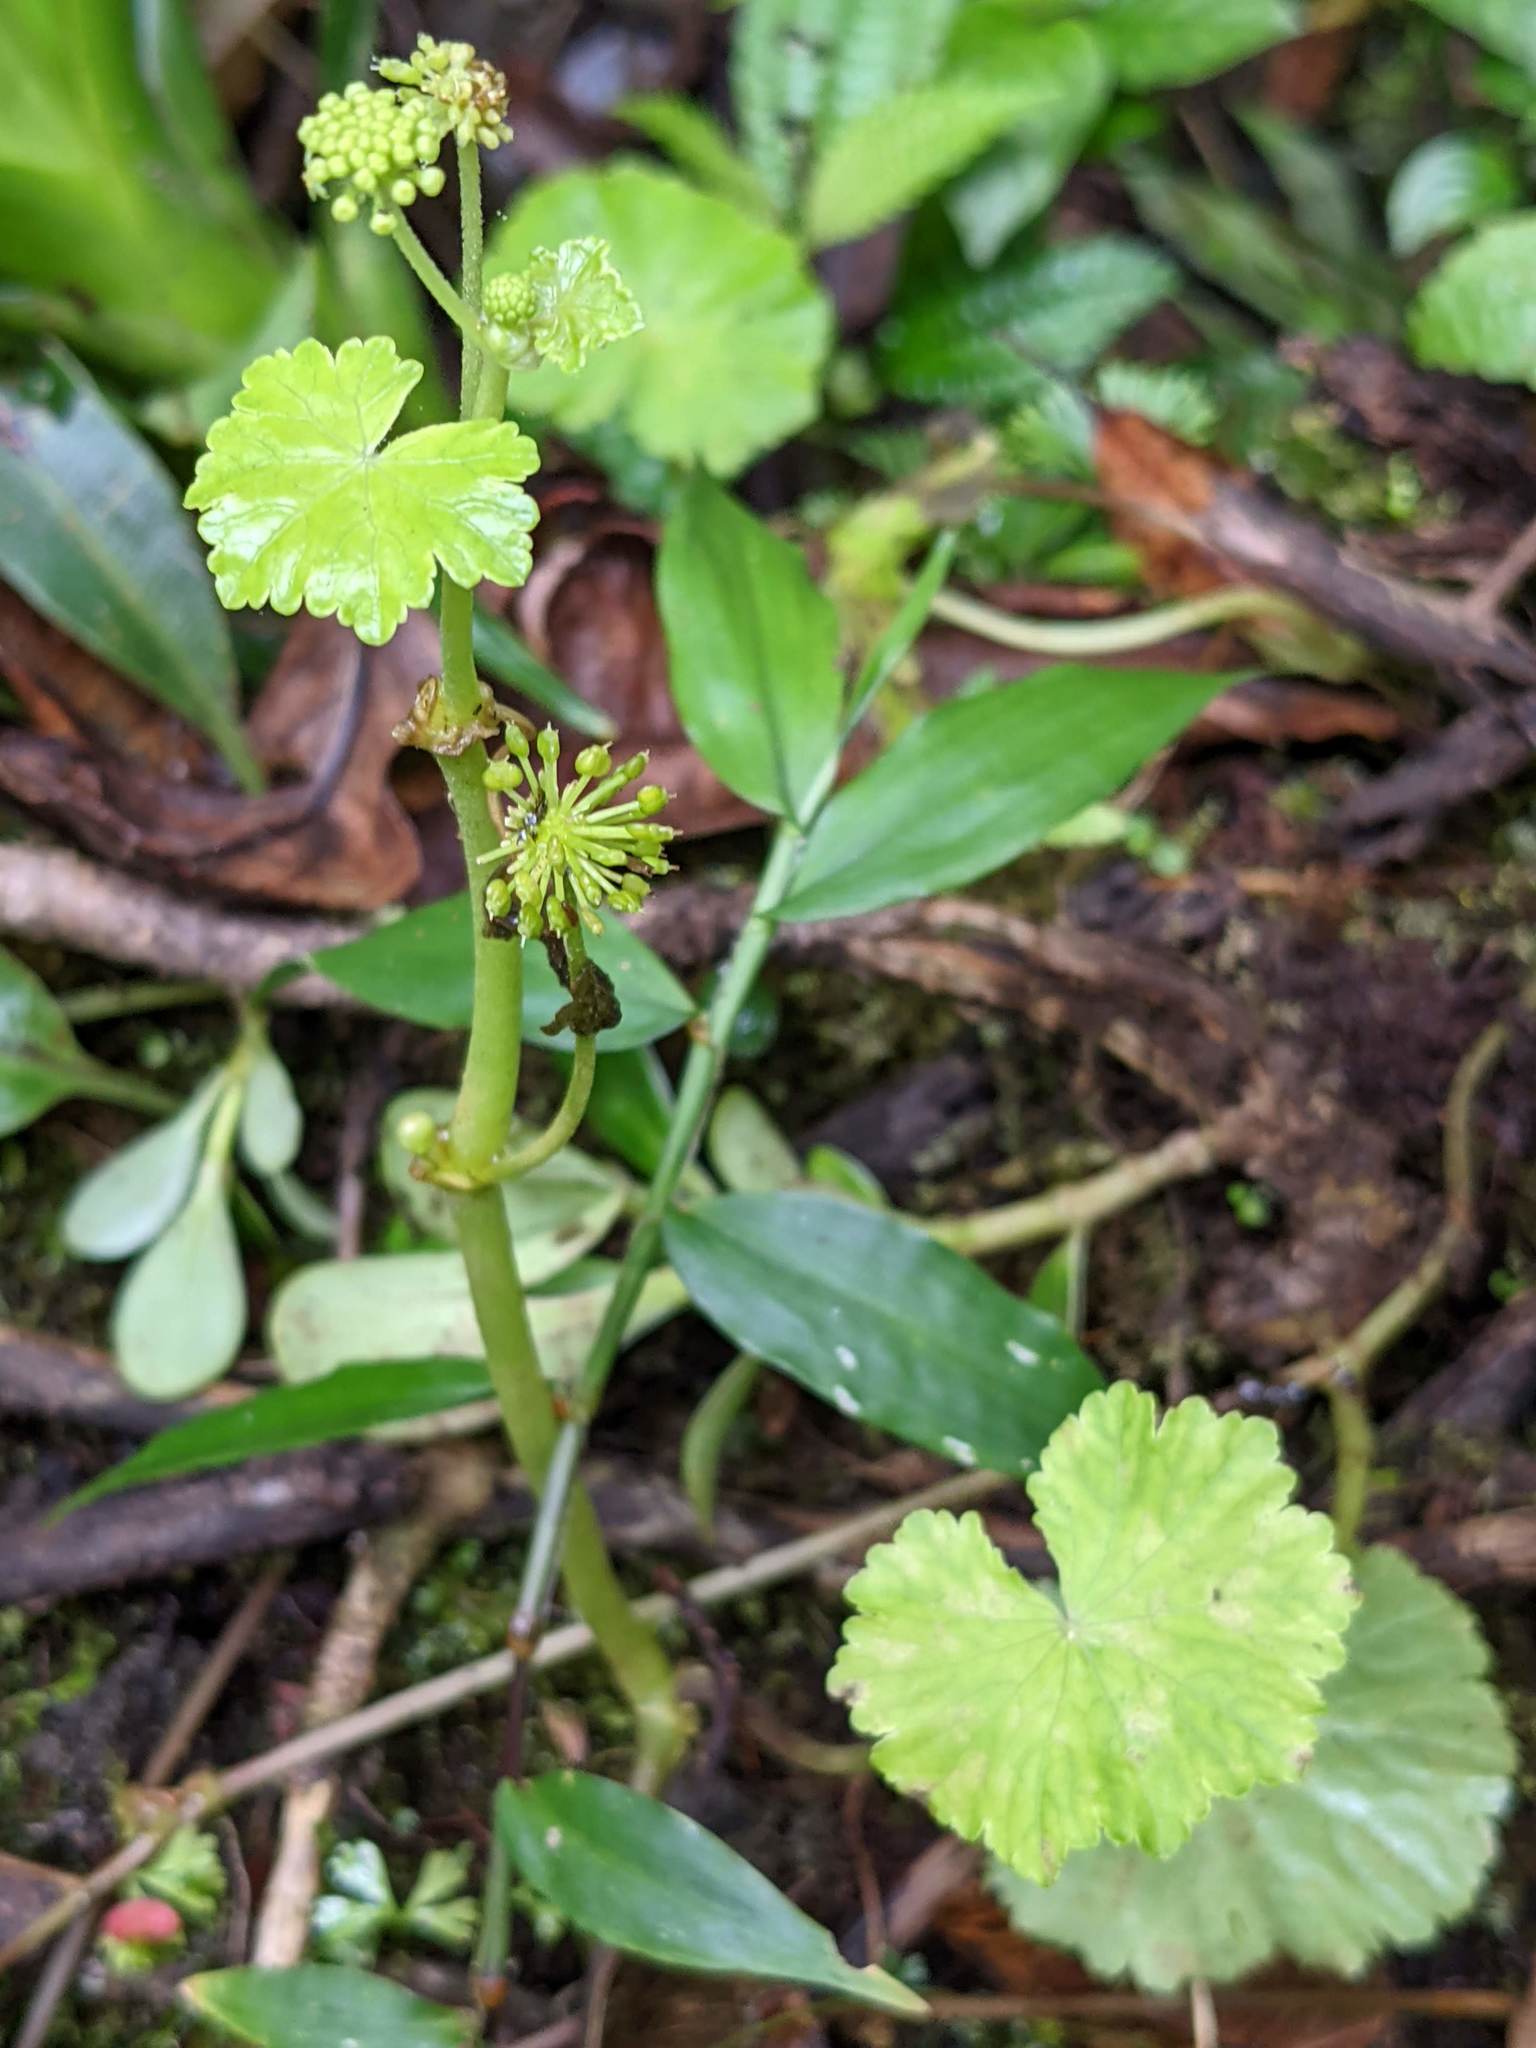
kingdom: Plantae
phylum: Tracheophyta
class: Magnoliopsida
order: Apiales
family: Araliaceae
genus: Hydrocotyle
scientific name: Hydrocotyle mexicana
